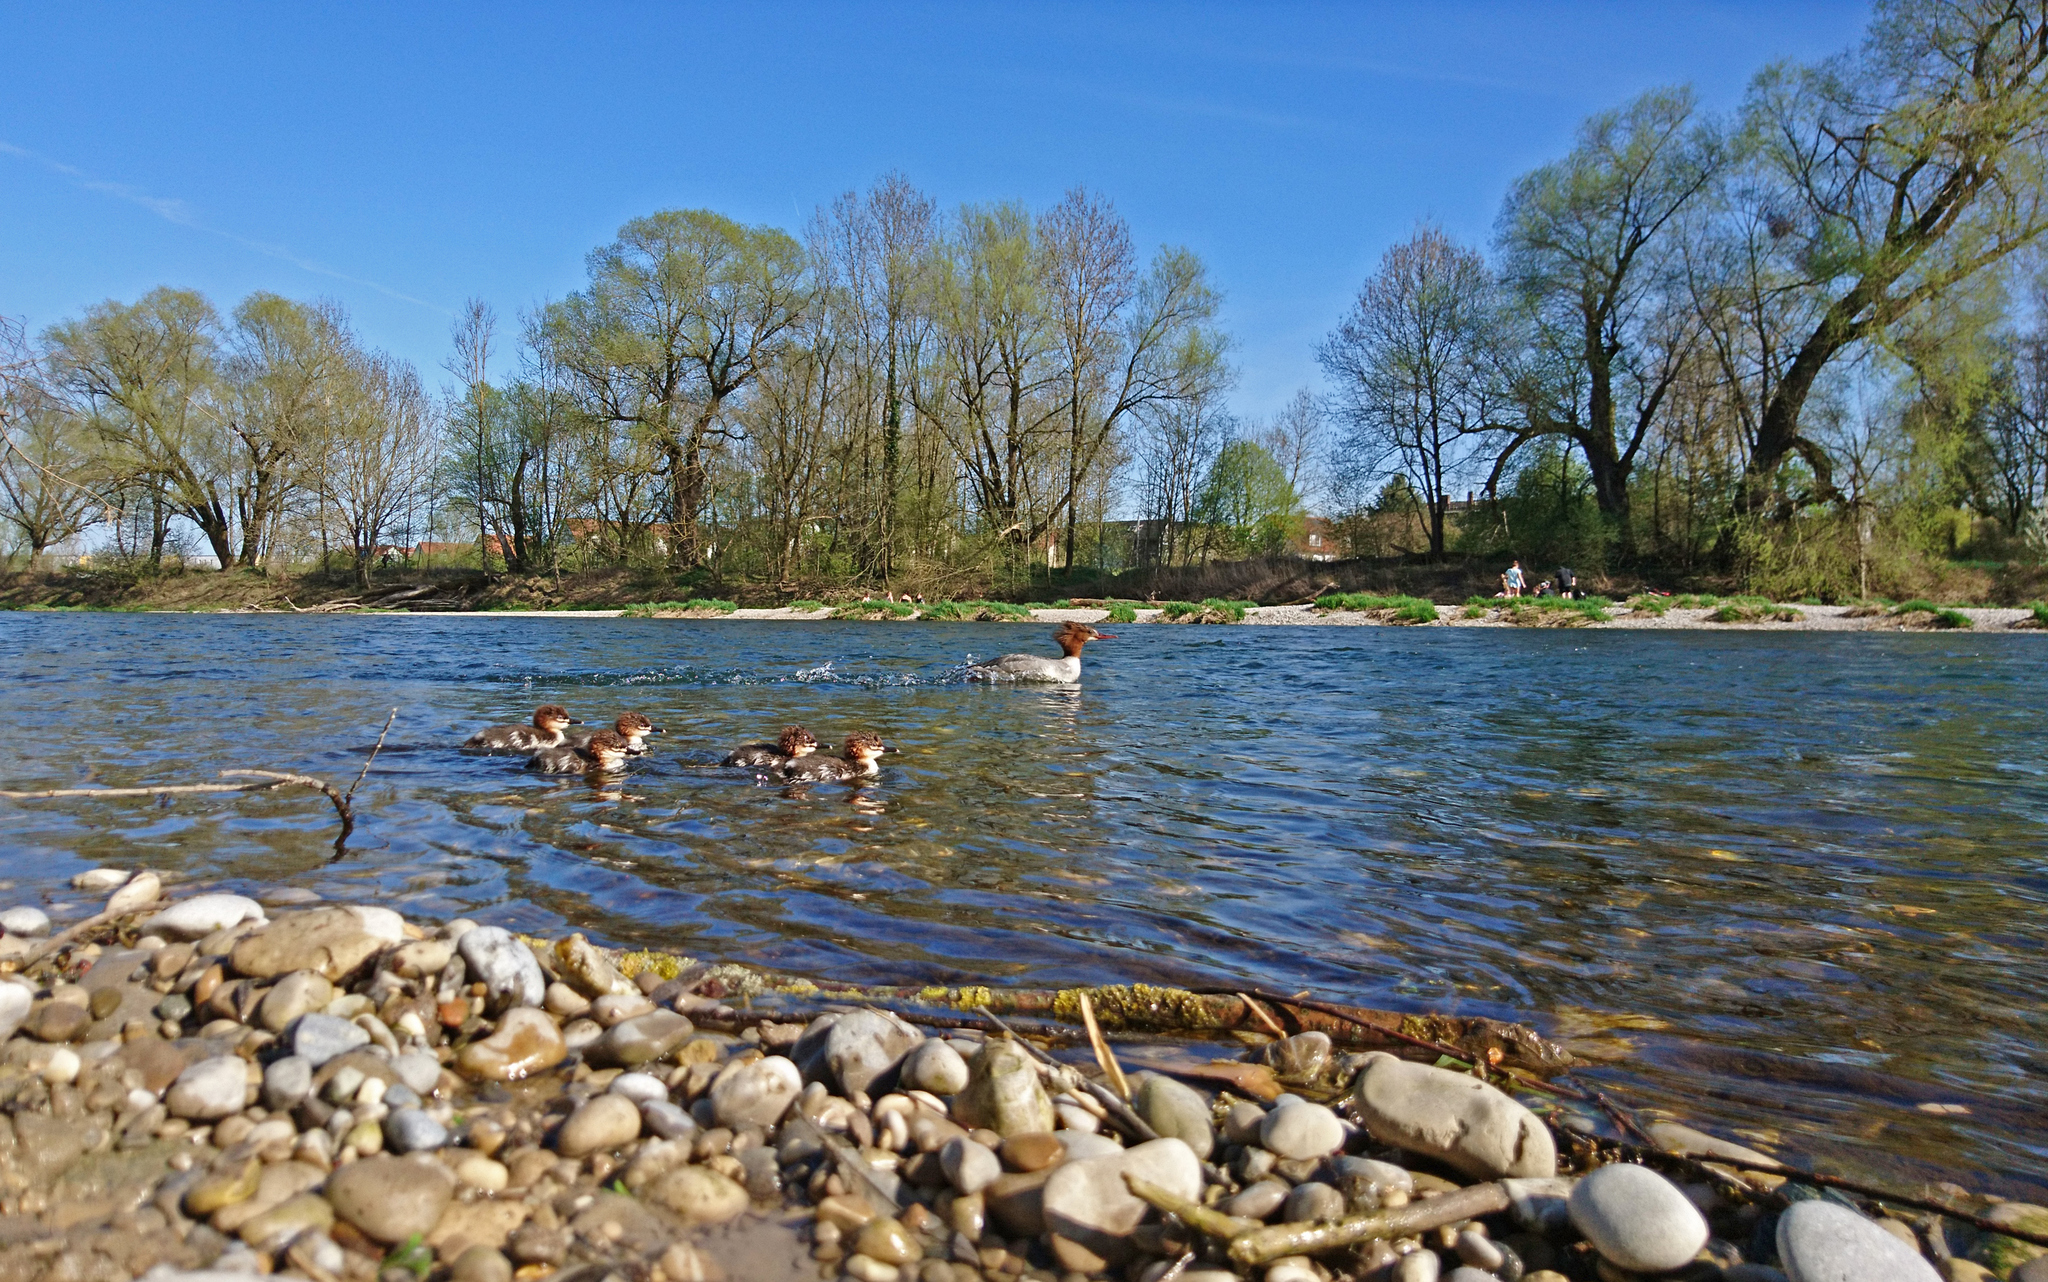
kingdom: Animalia
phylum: Chordata
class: Aves
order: Anseriformes
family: Anatidae
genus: Mergus
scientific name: Mergus merganser
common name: Common merganser
